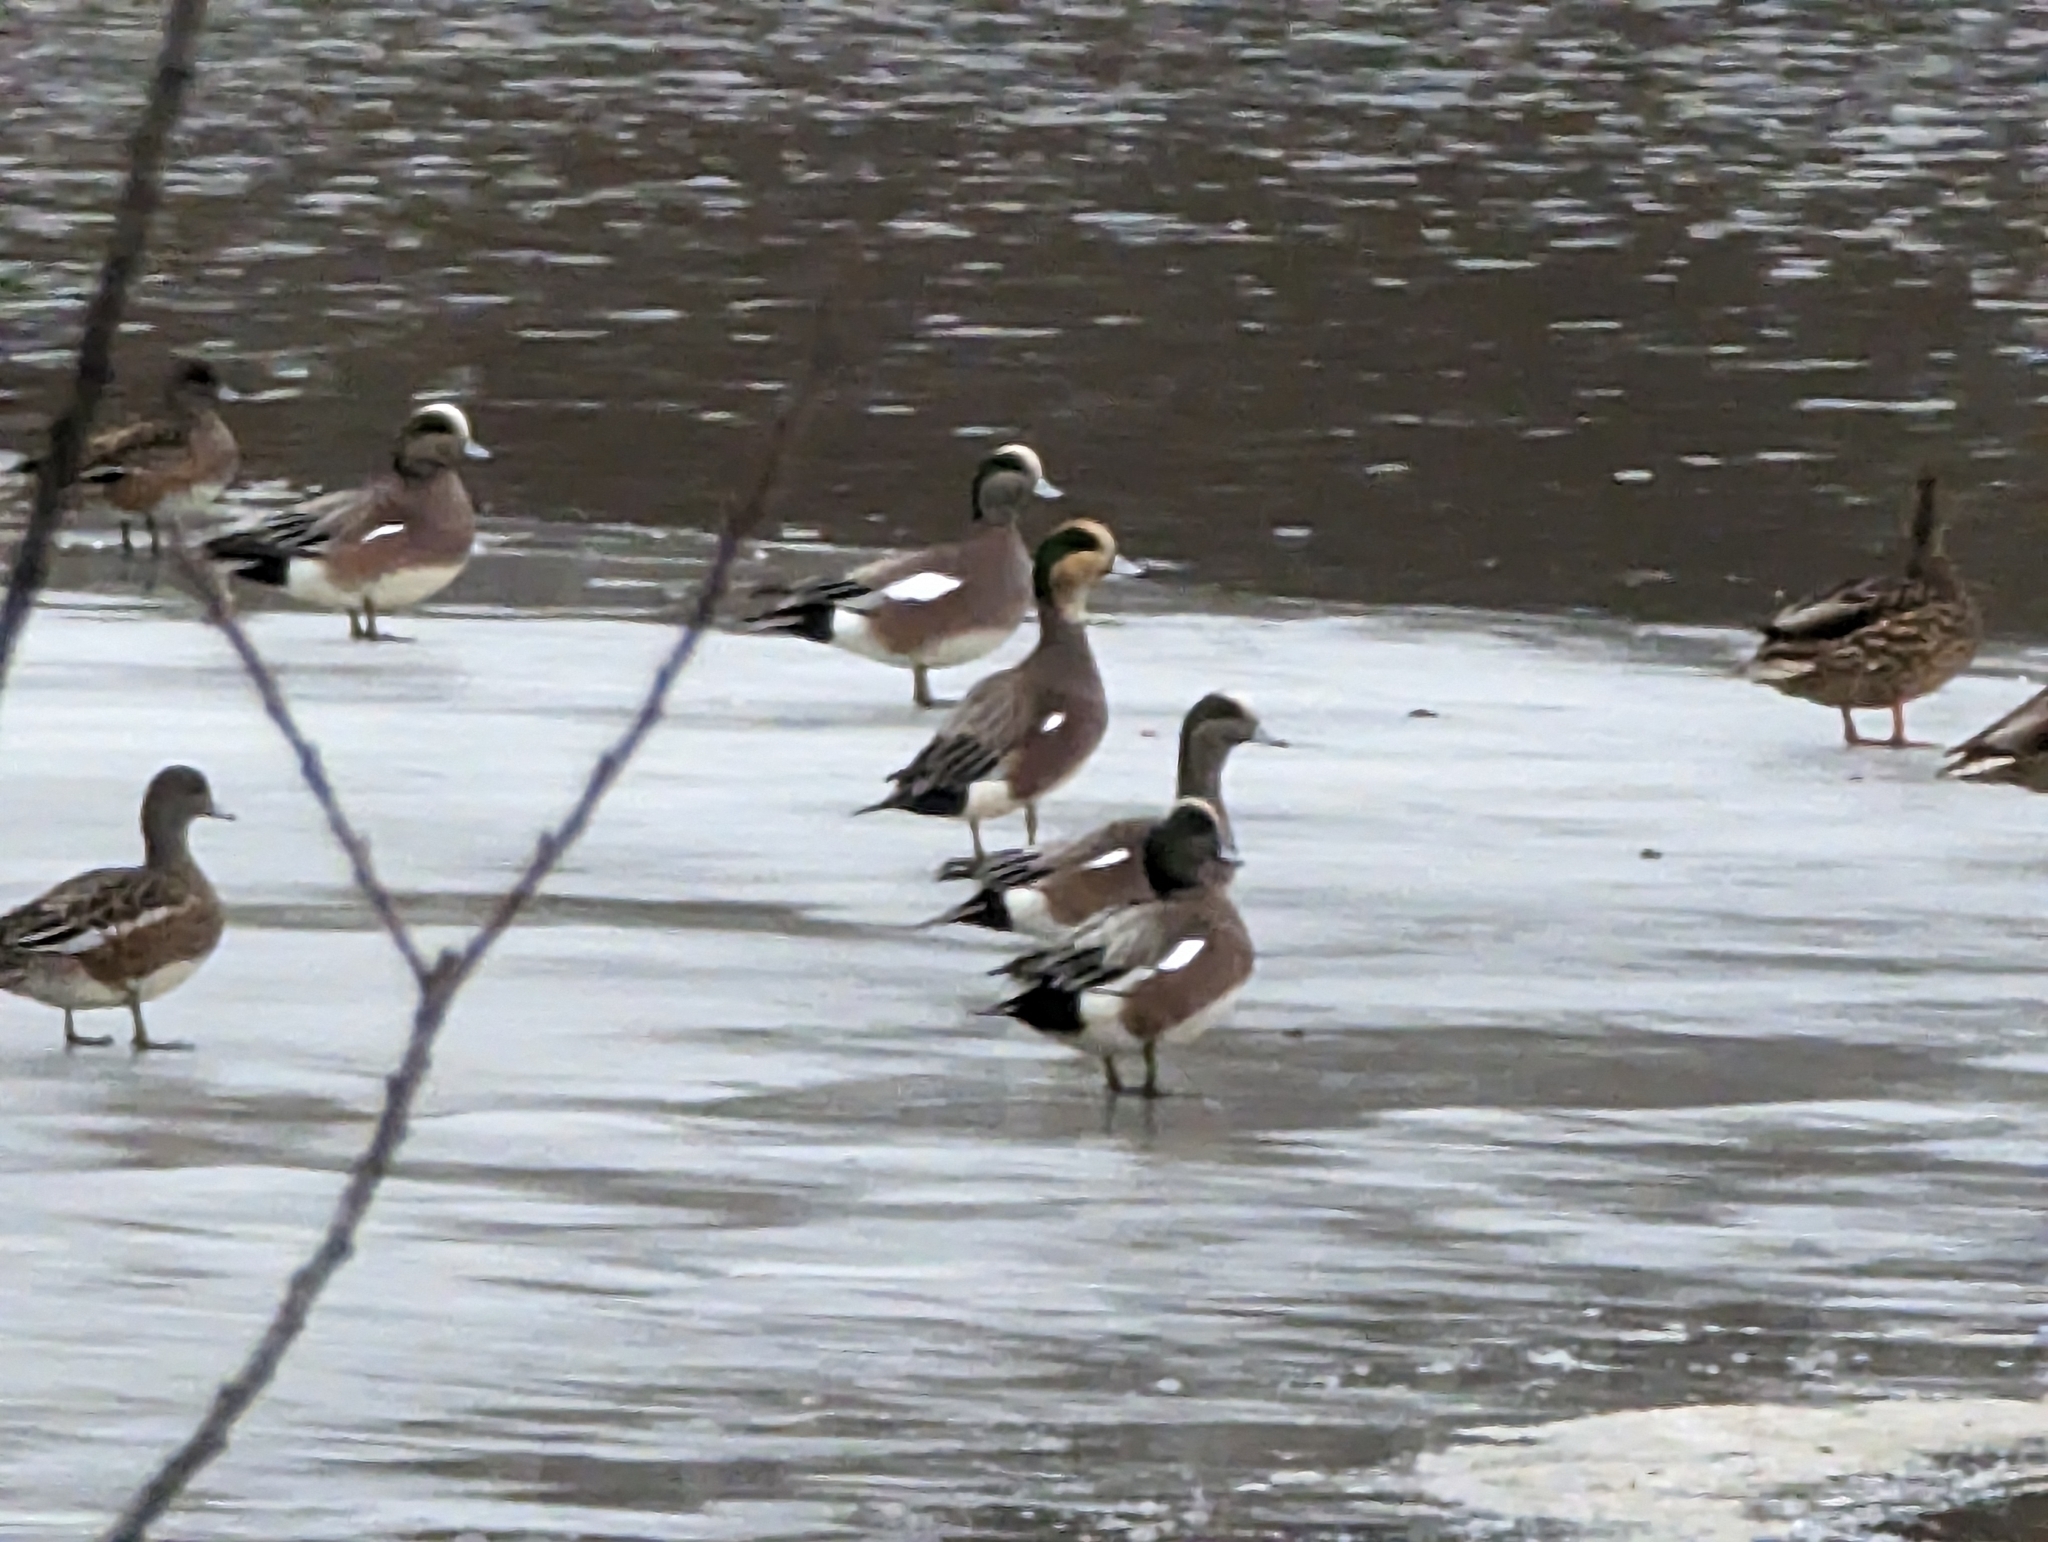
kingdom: Animalia
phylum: Chordata
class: Aves
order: Anseriformes
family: Anatidae
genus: Mareca
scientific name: Mareca americana
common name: American wigeon
